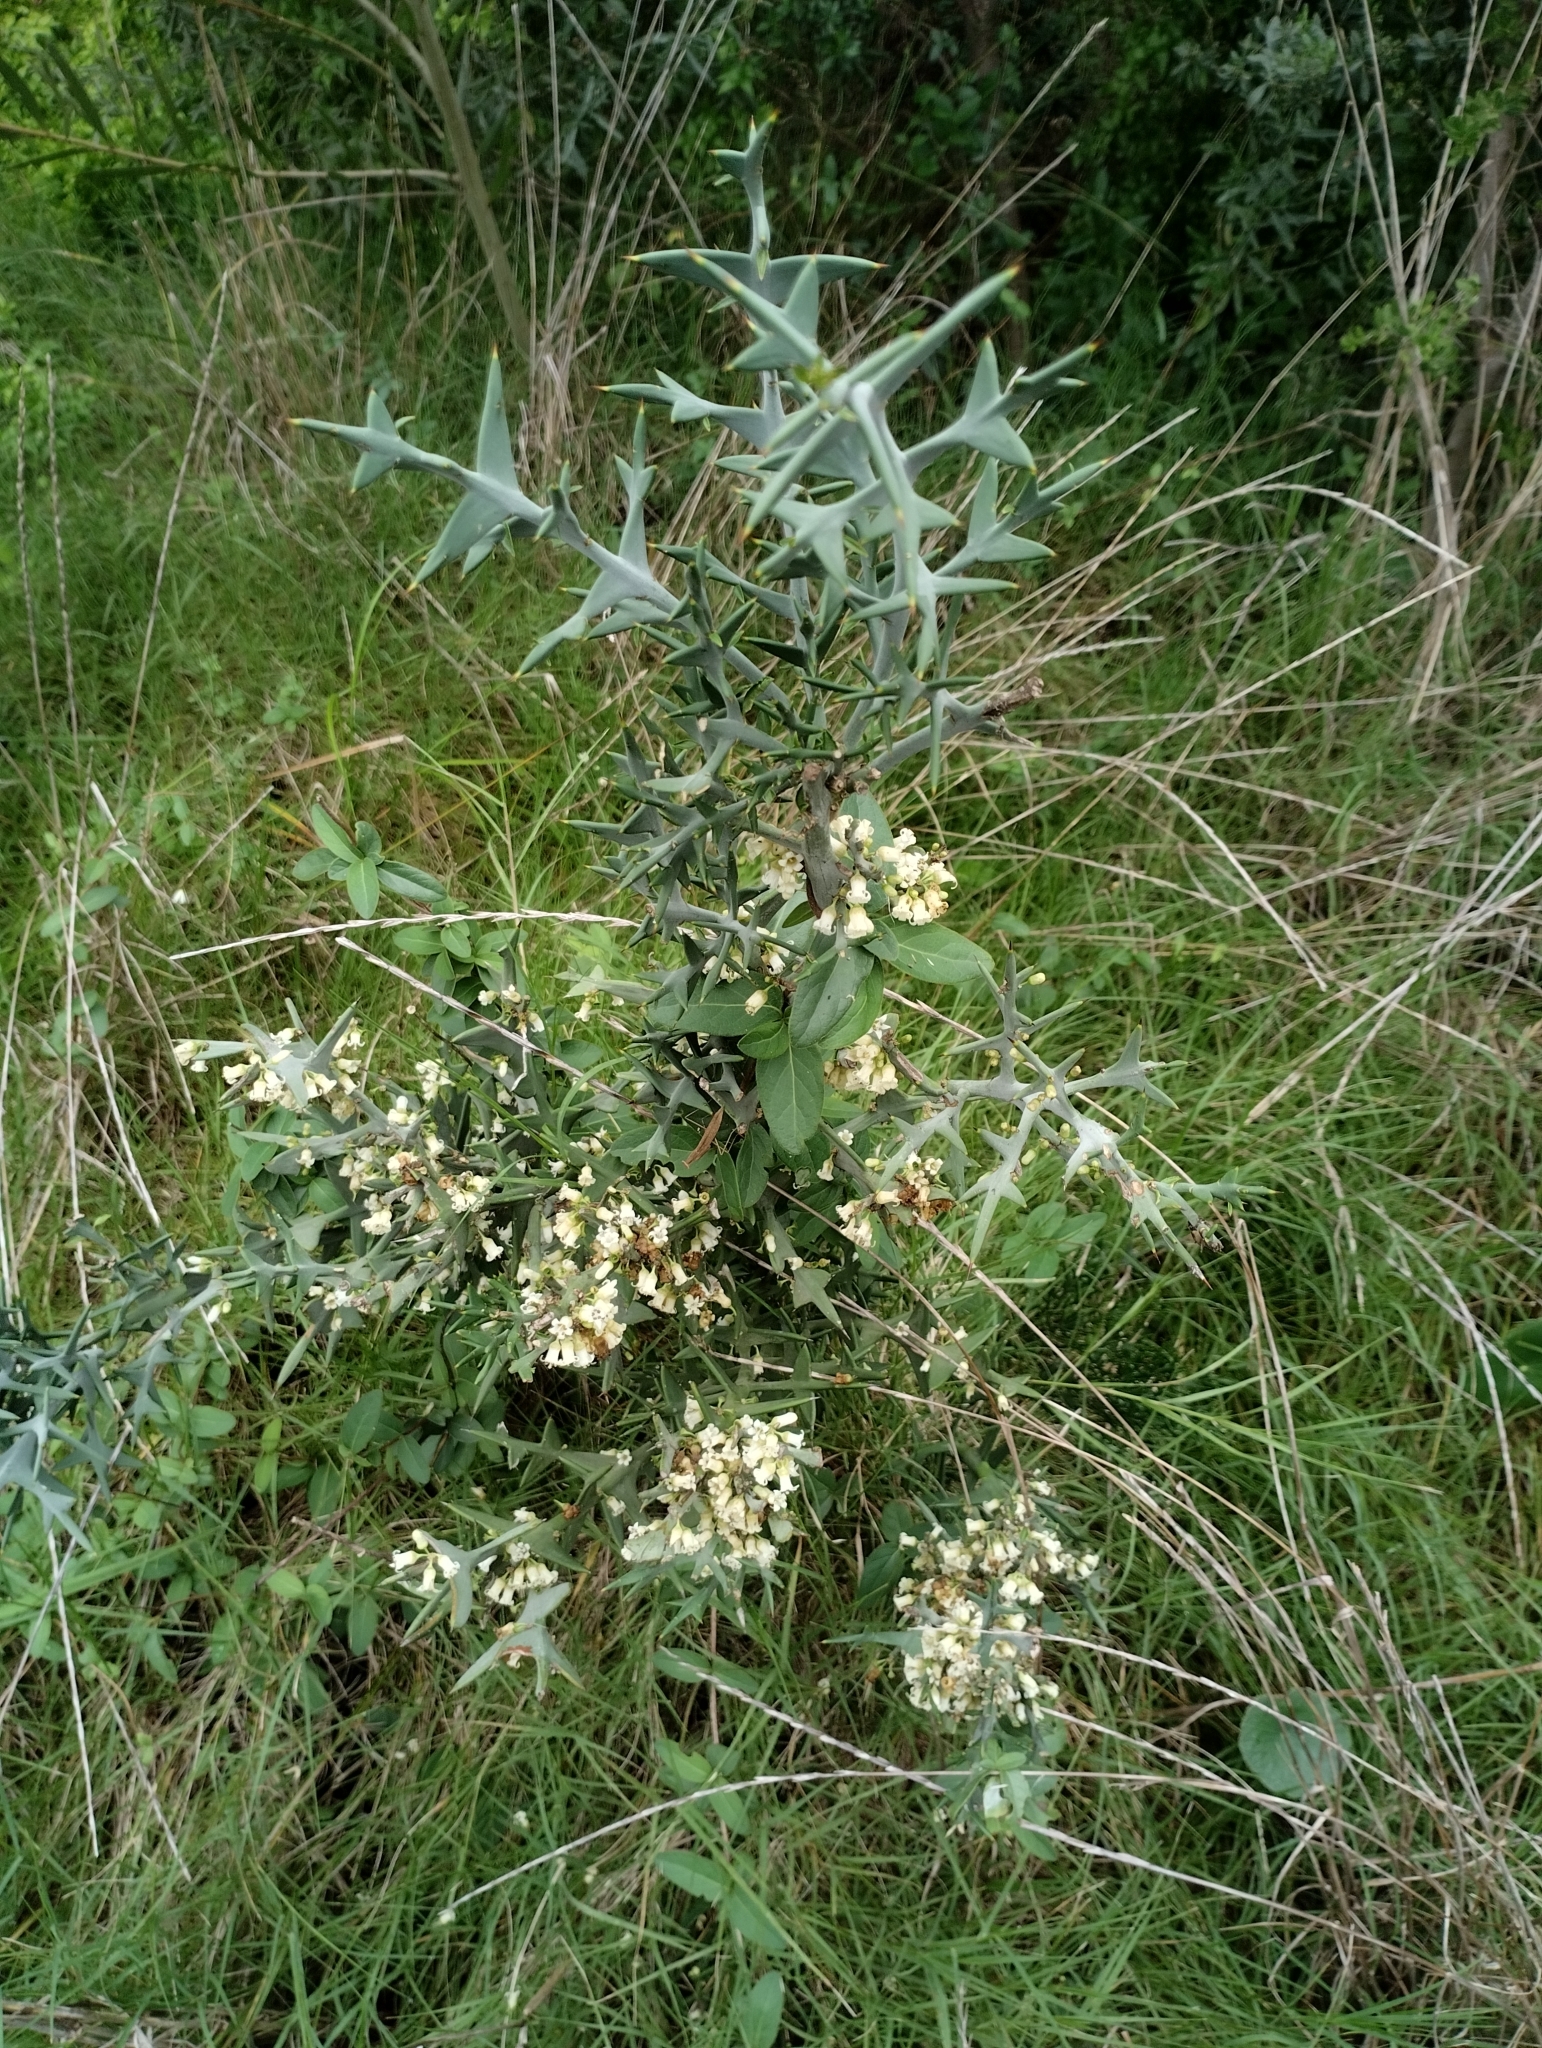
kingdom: Plantae
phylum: Tracheophyta
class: Magnoliopsida
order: Rosales
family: Rhamnaceae
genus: Colletia
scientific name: Colletia paradoxa
